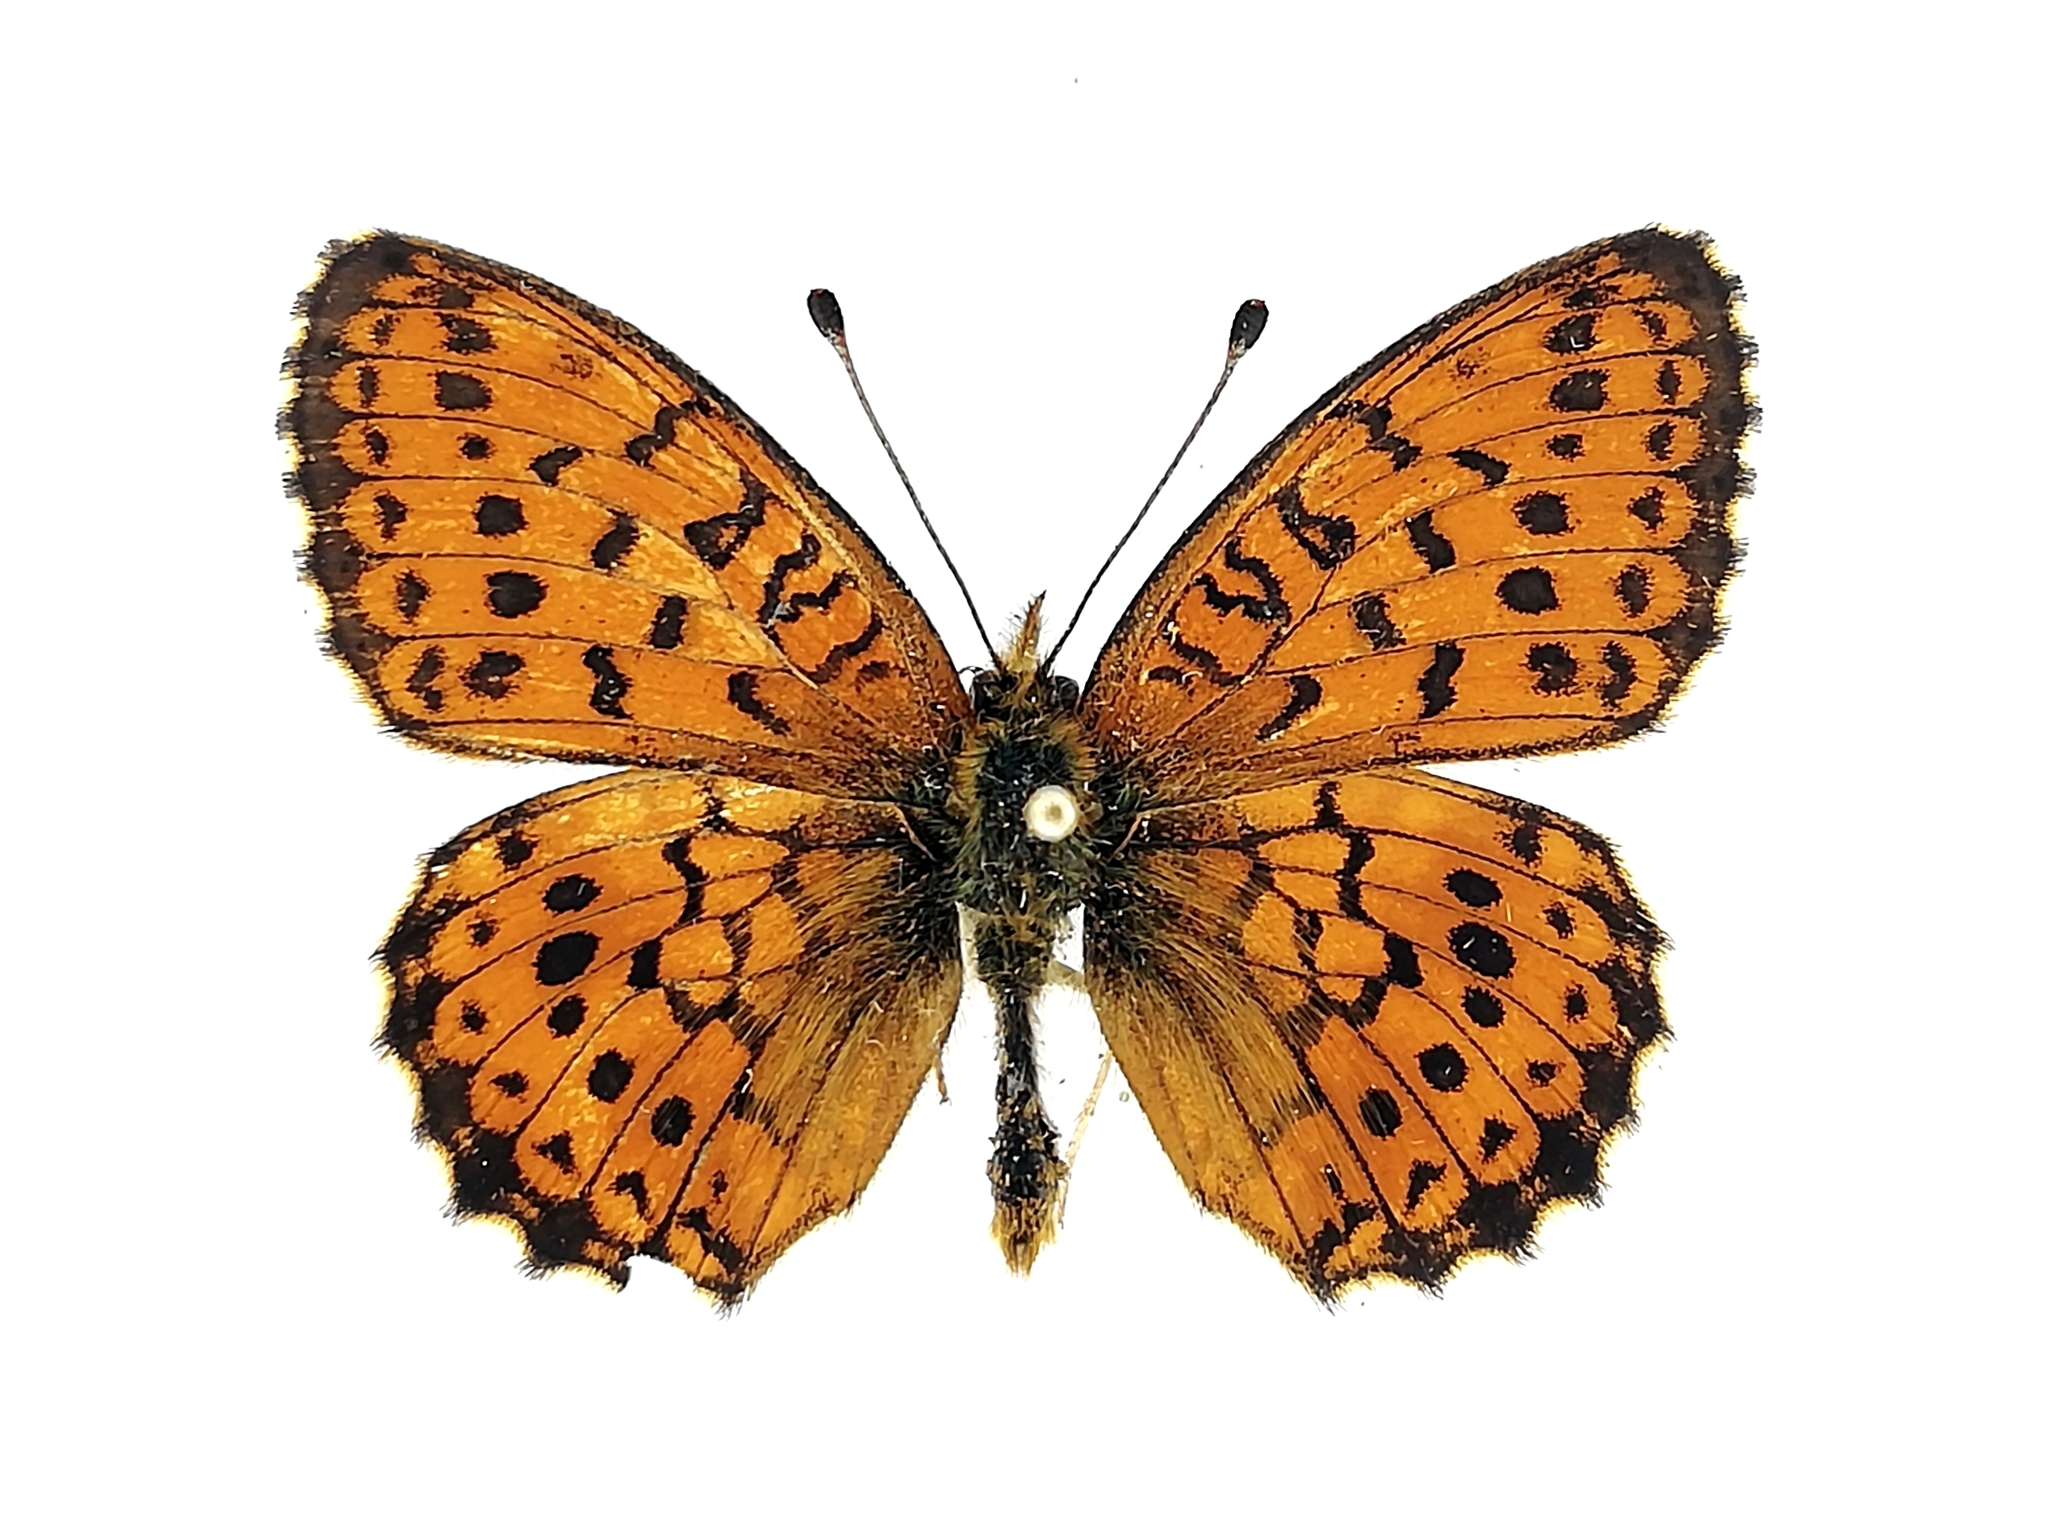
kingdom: Animalia
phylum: Arthropoda
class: Insecta
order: Lepidoptera
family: Nymphalidae
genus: Brenthis
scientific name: Brenthis ino
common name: Lesser marbled fritillary
